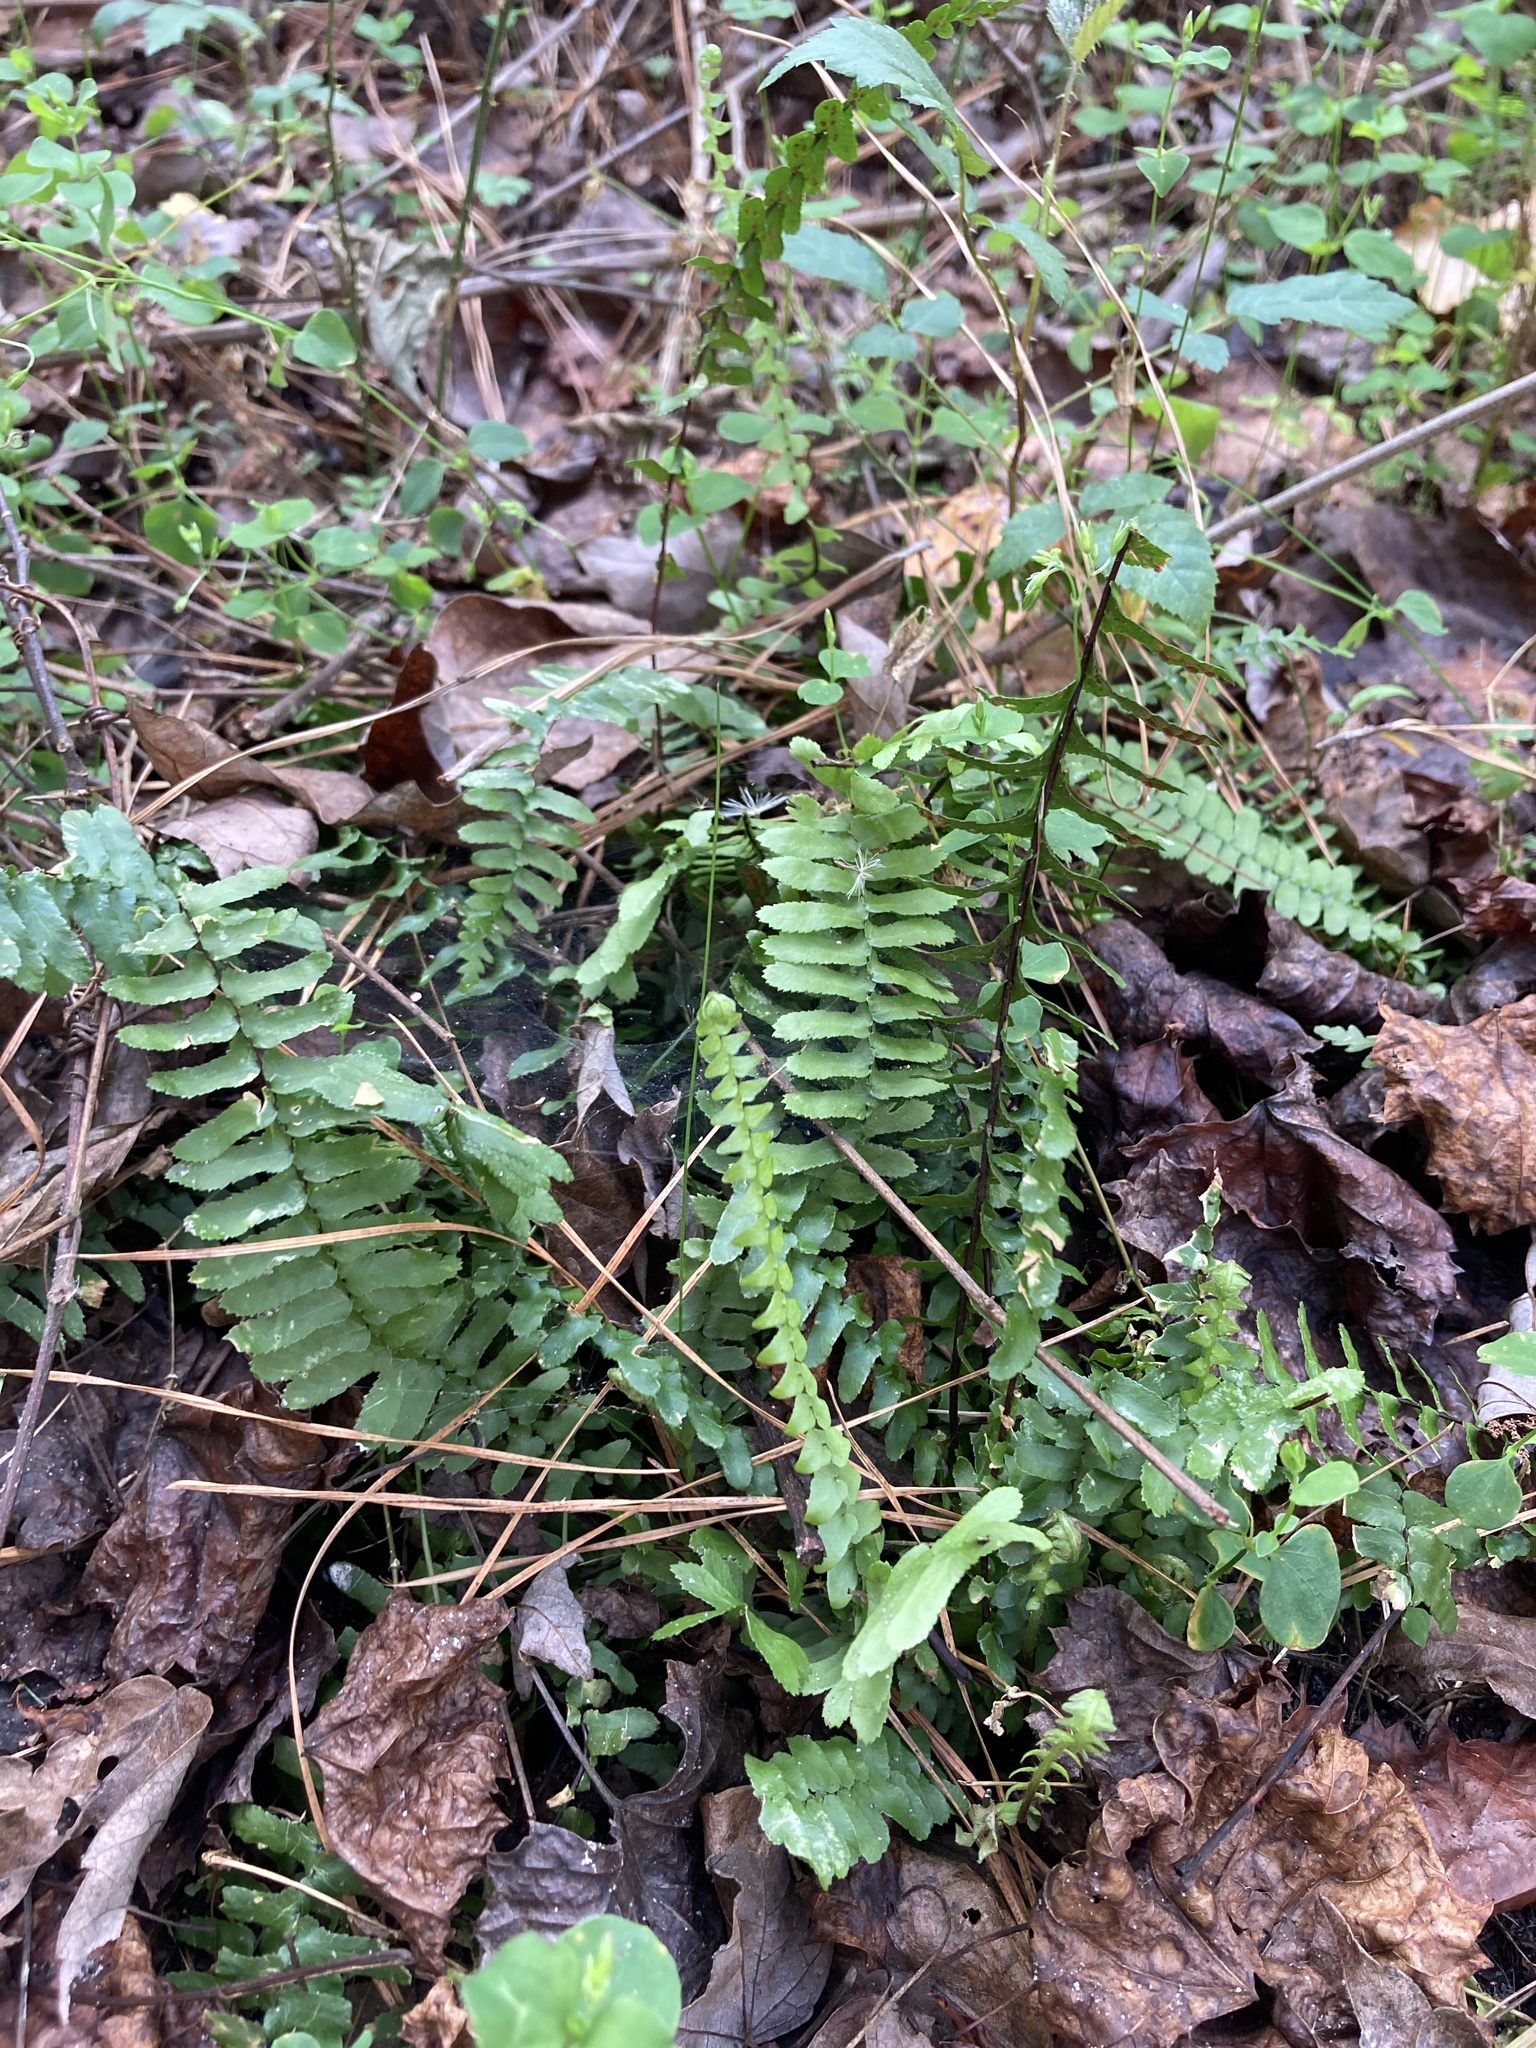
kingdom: Plantae
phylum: Tracheophyta
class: Polypodiopsida
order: Polypodiales
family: Aspleniaceae
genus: Asplenium
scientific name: Asplenium platyneuron
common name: Ebony spleenwort
